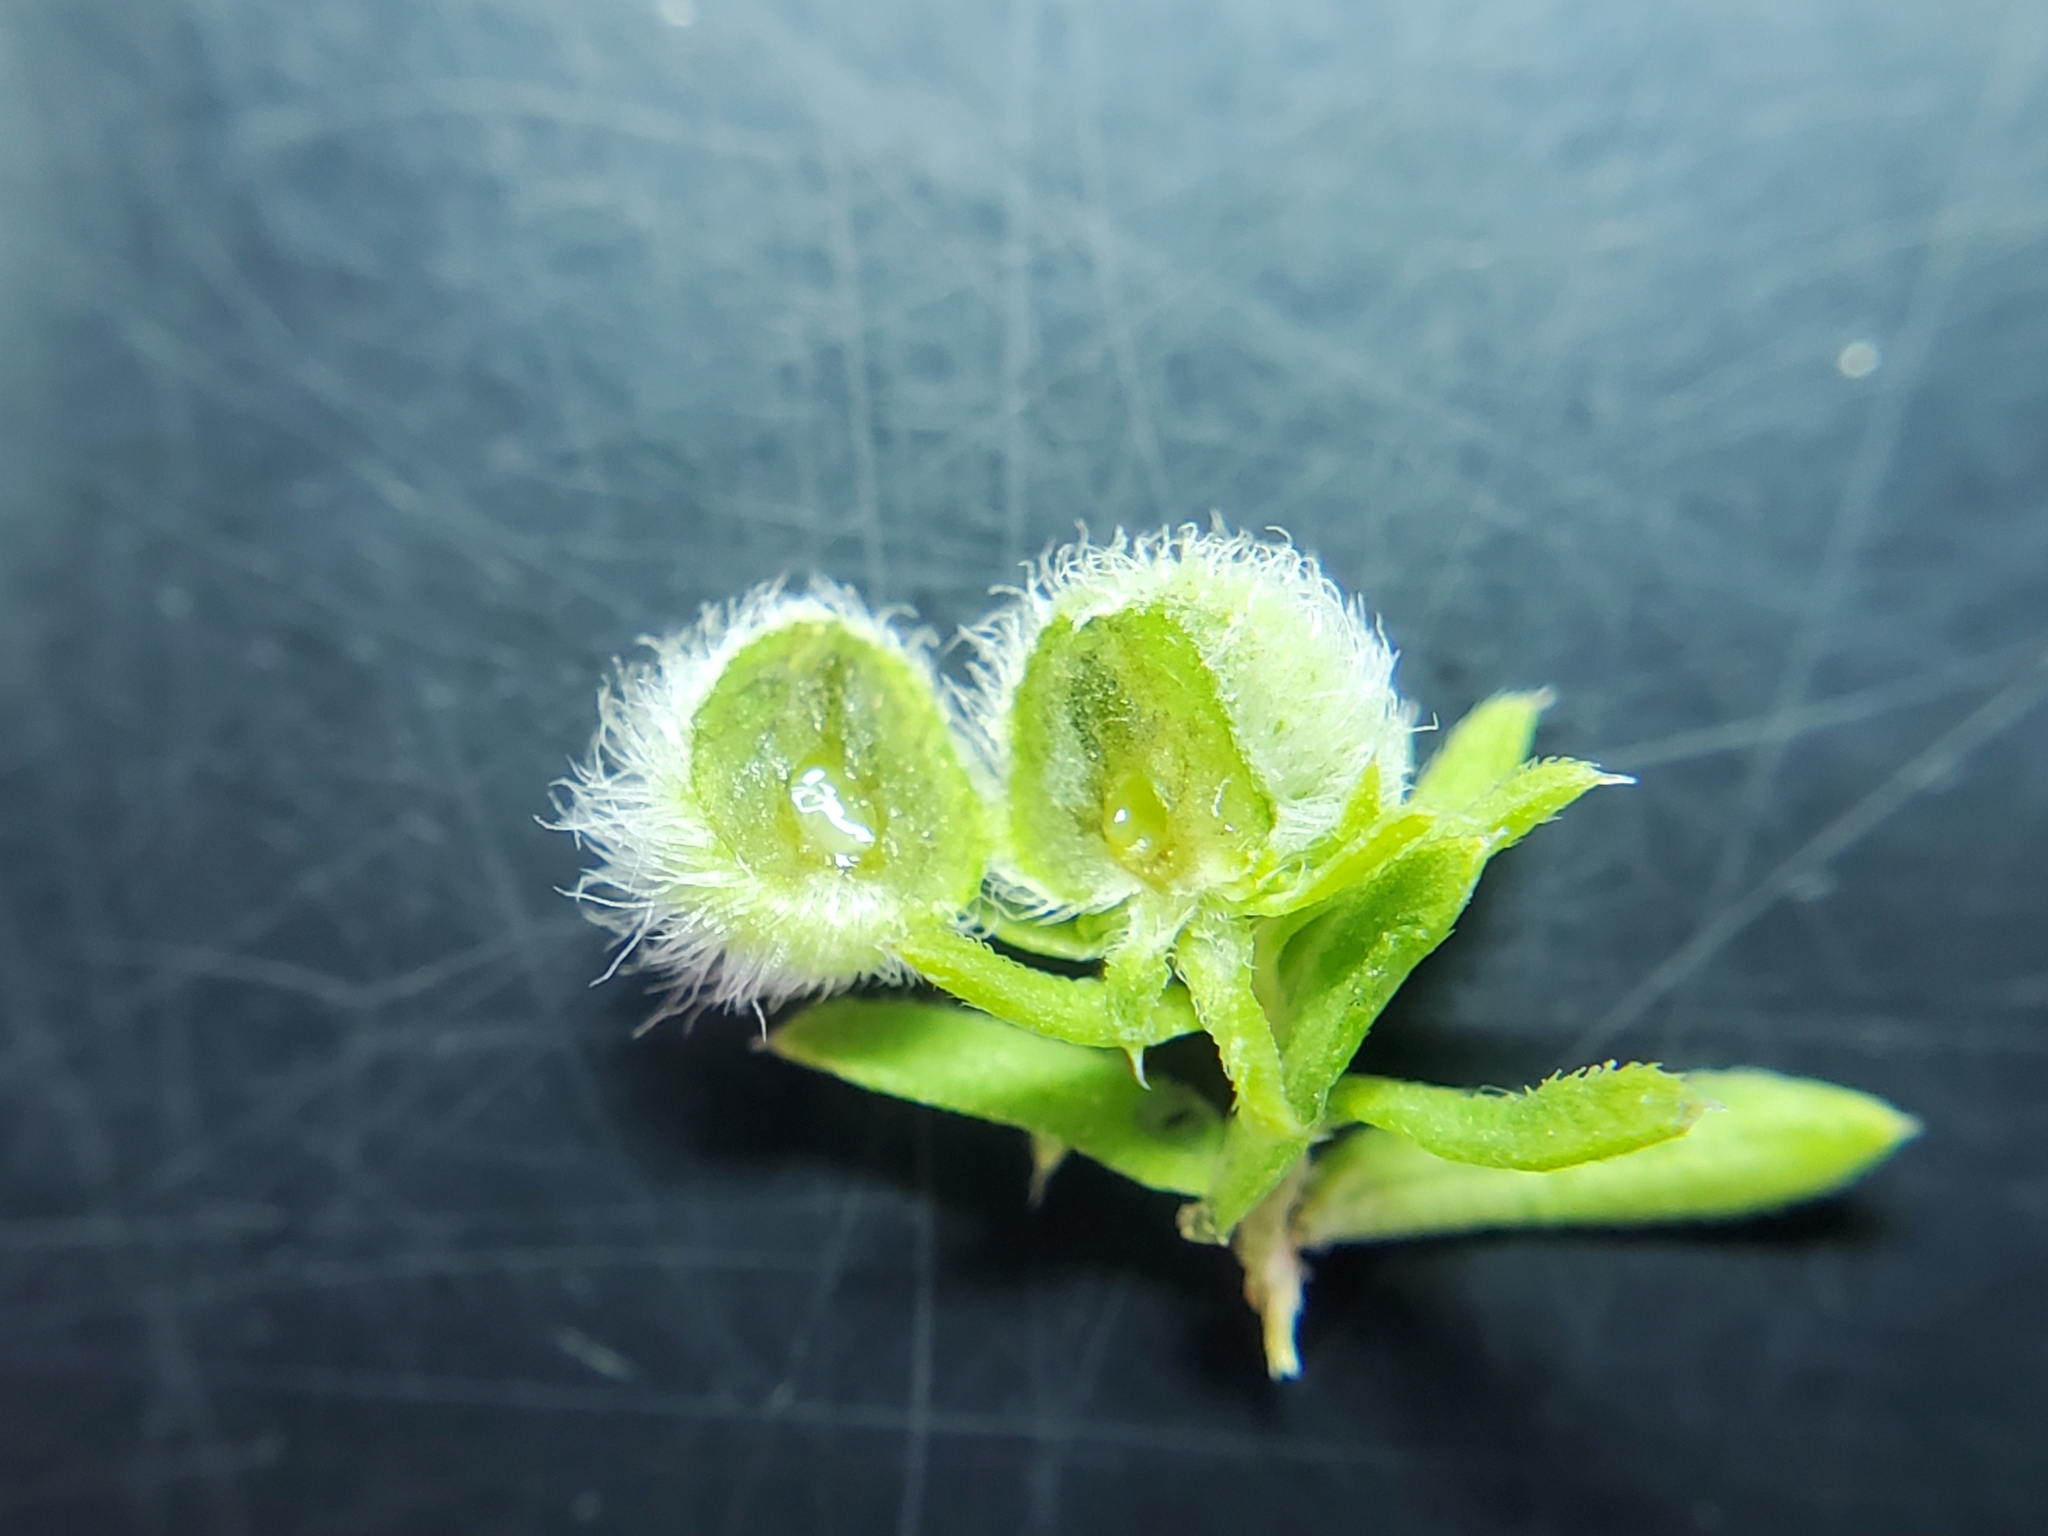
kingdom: Animalia
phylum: Arthropoda
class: Insecta
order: Diptera
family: Cecidomyiidae
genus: Rhopalomyia
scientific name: Rhopalomyia gemmaria
